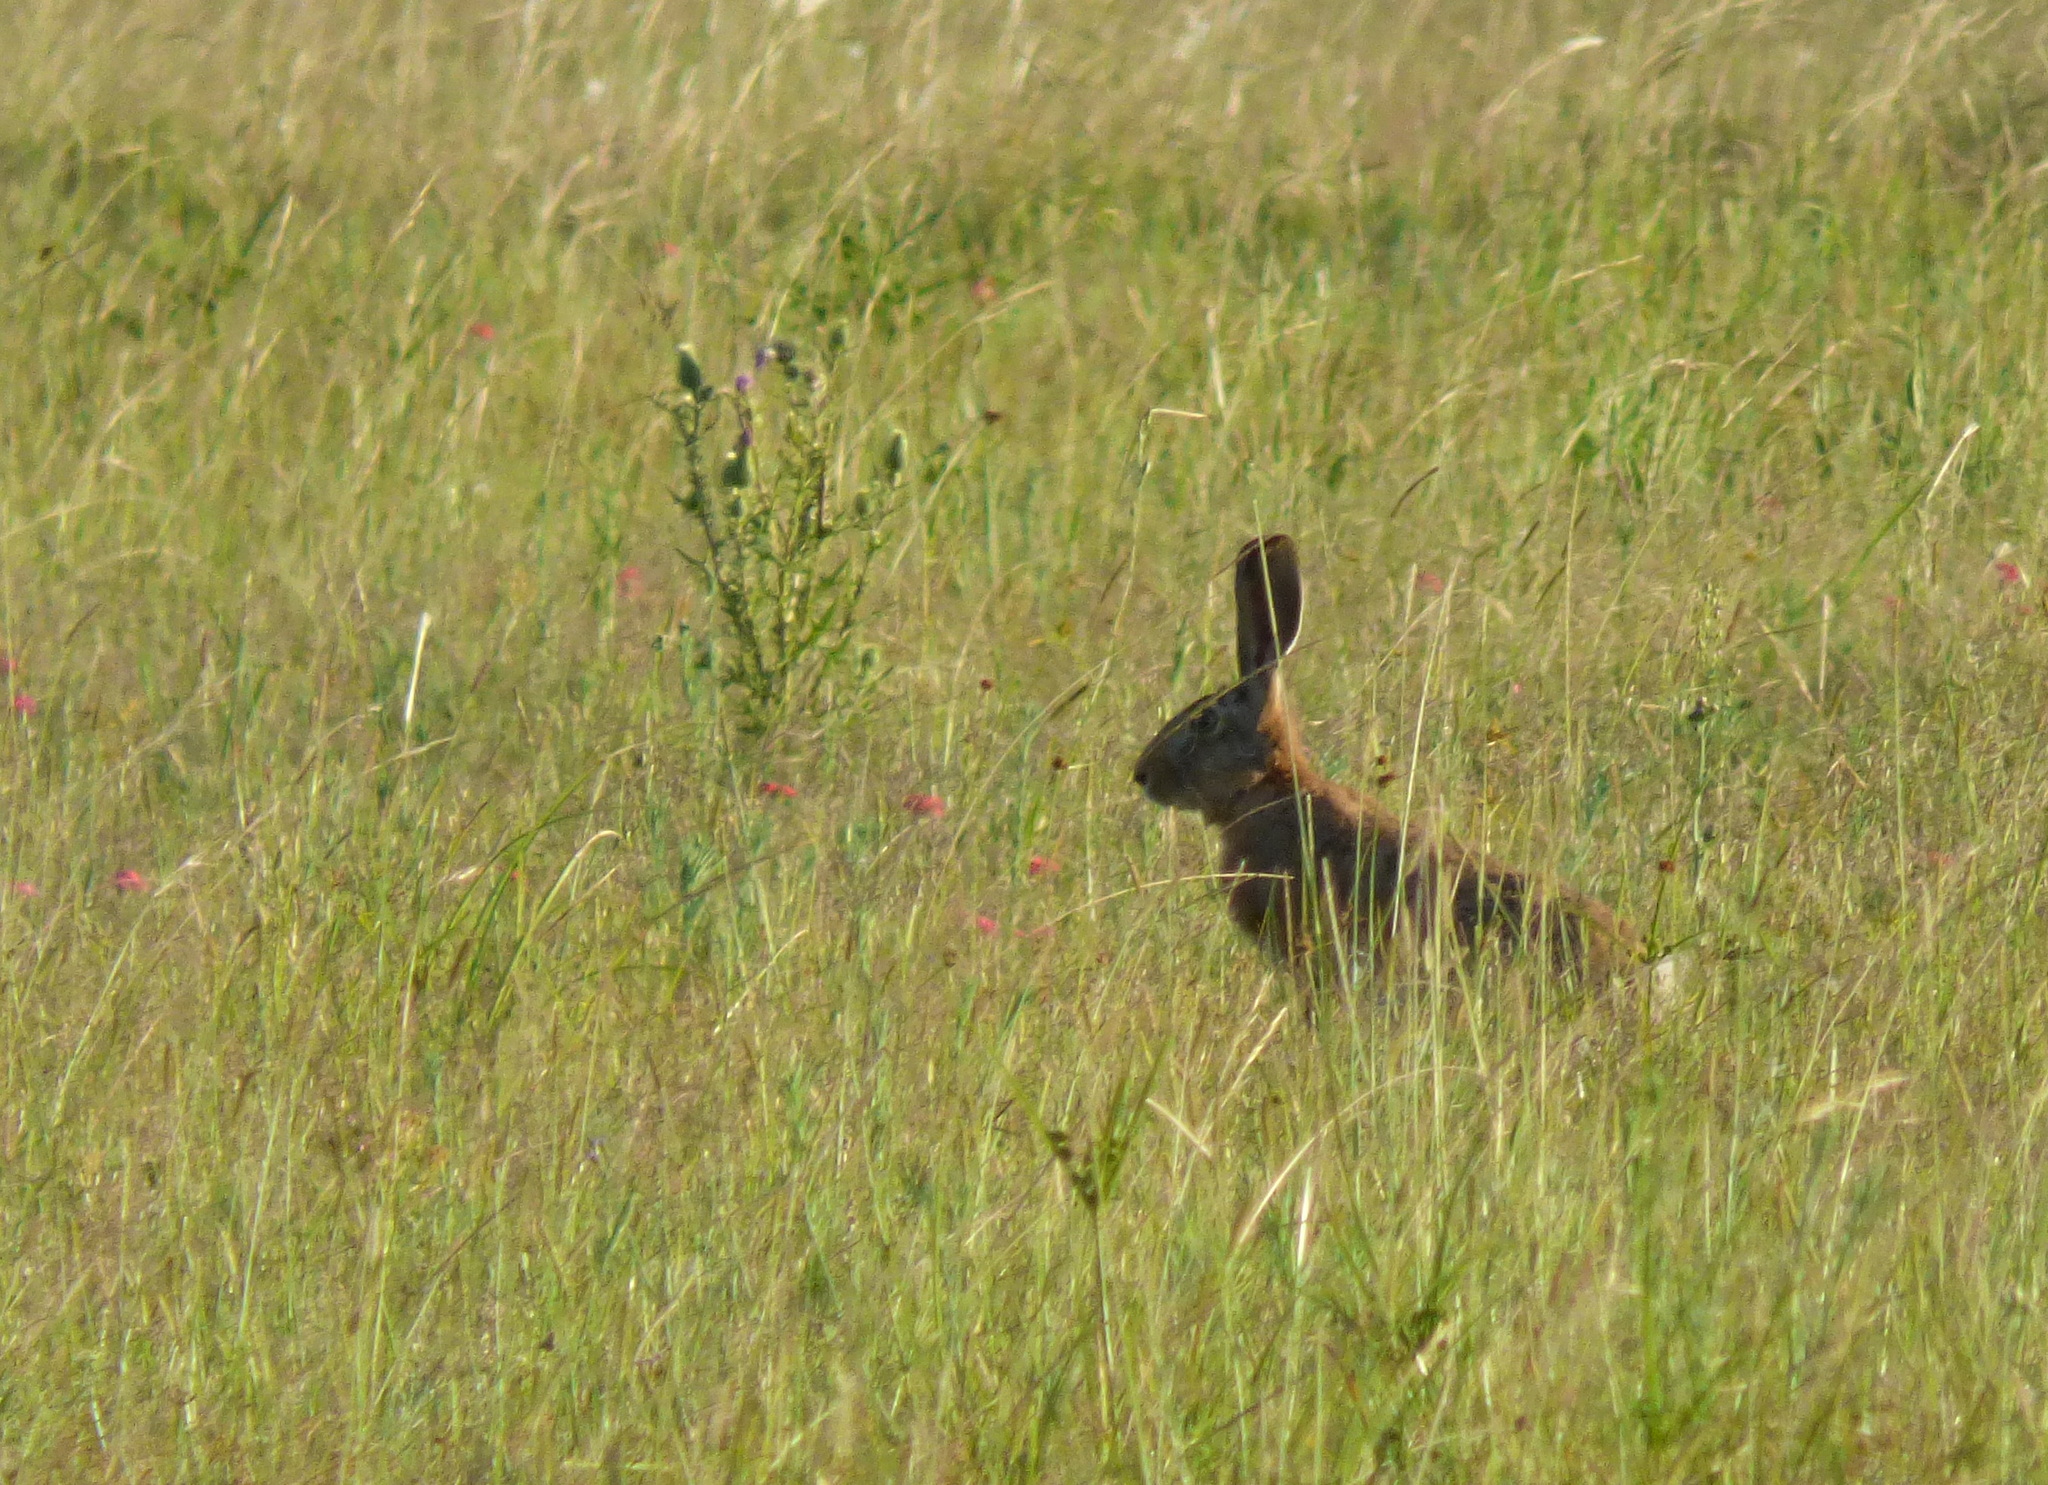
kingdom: Animalia
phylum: Chordata
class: Mammalia
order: Lagomorpha
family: Leporidae
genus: Lepus
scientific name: Lepus europaeus
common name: European hare
